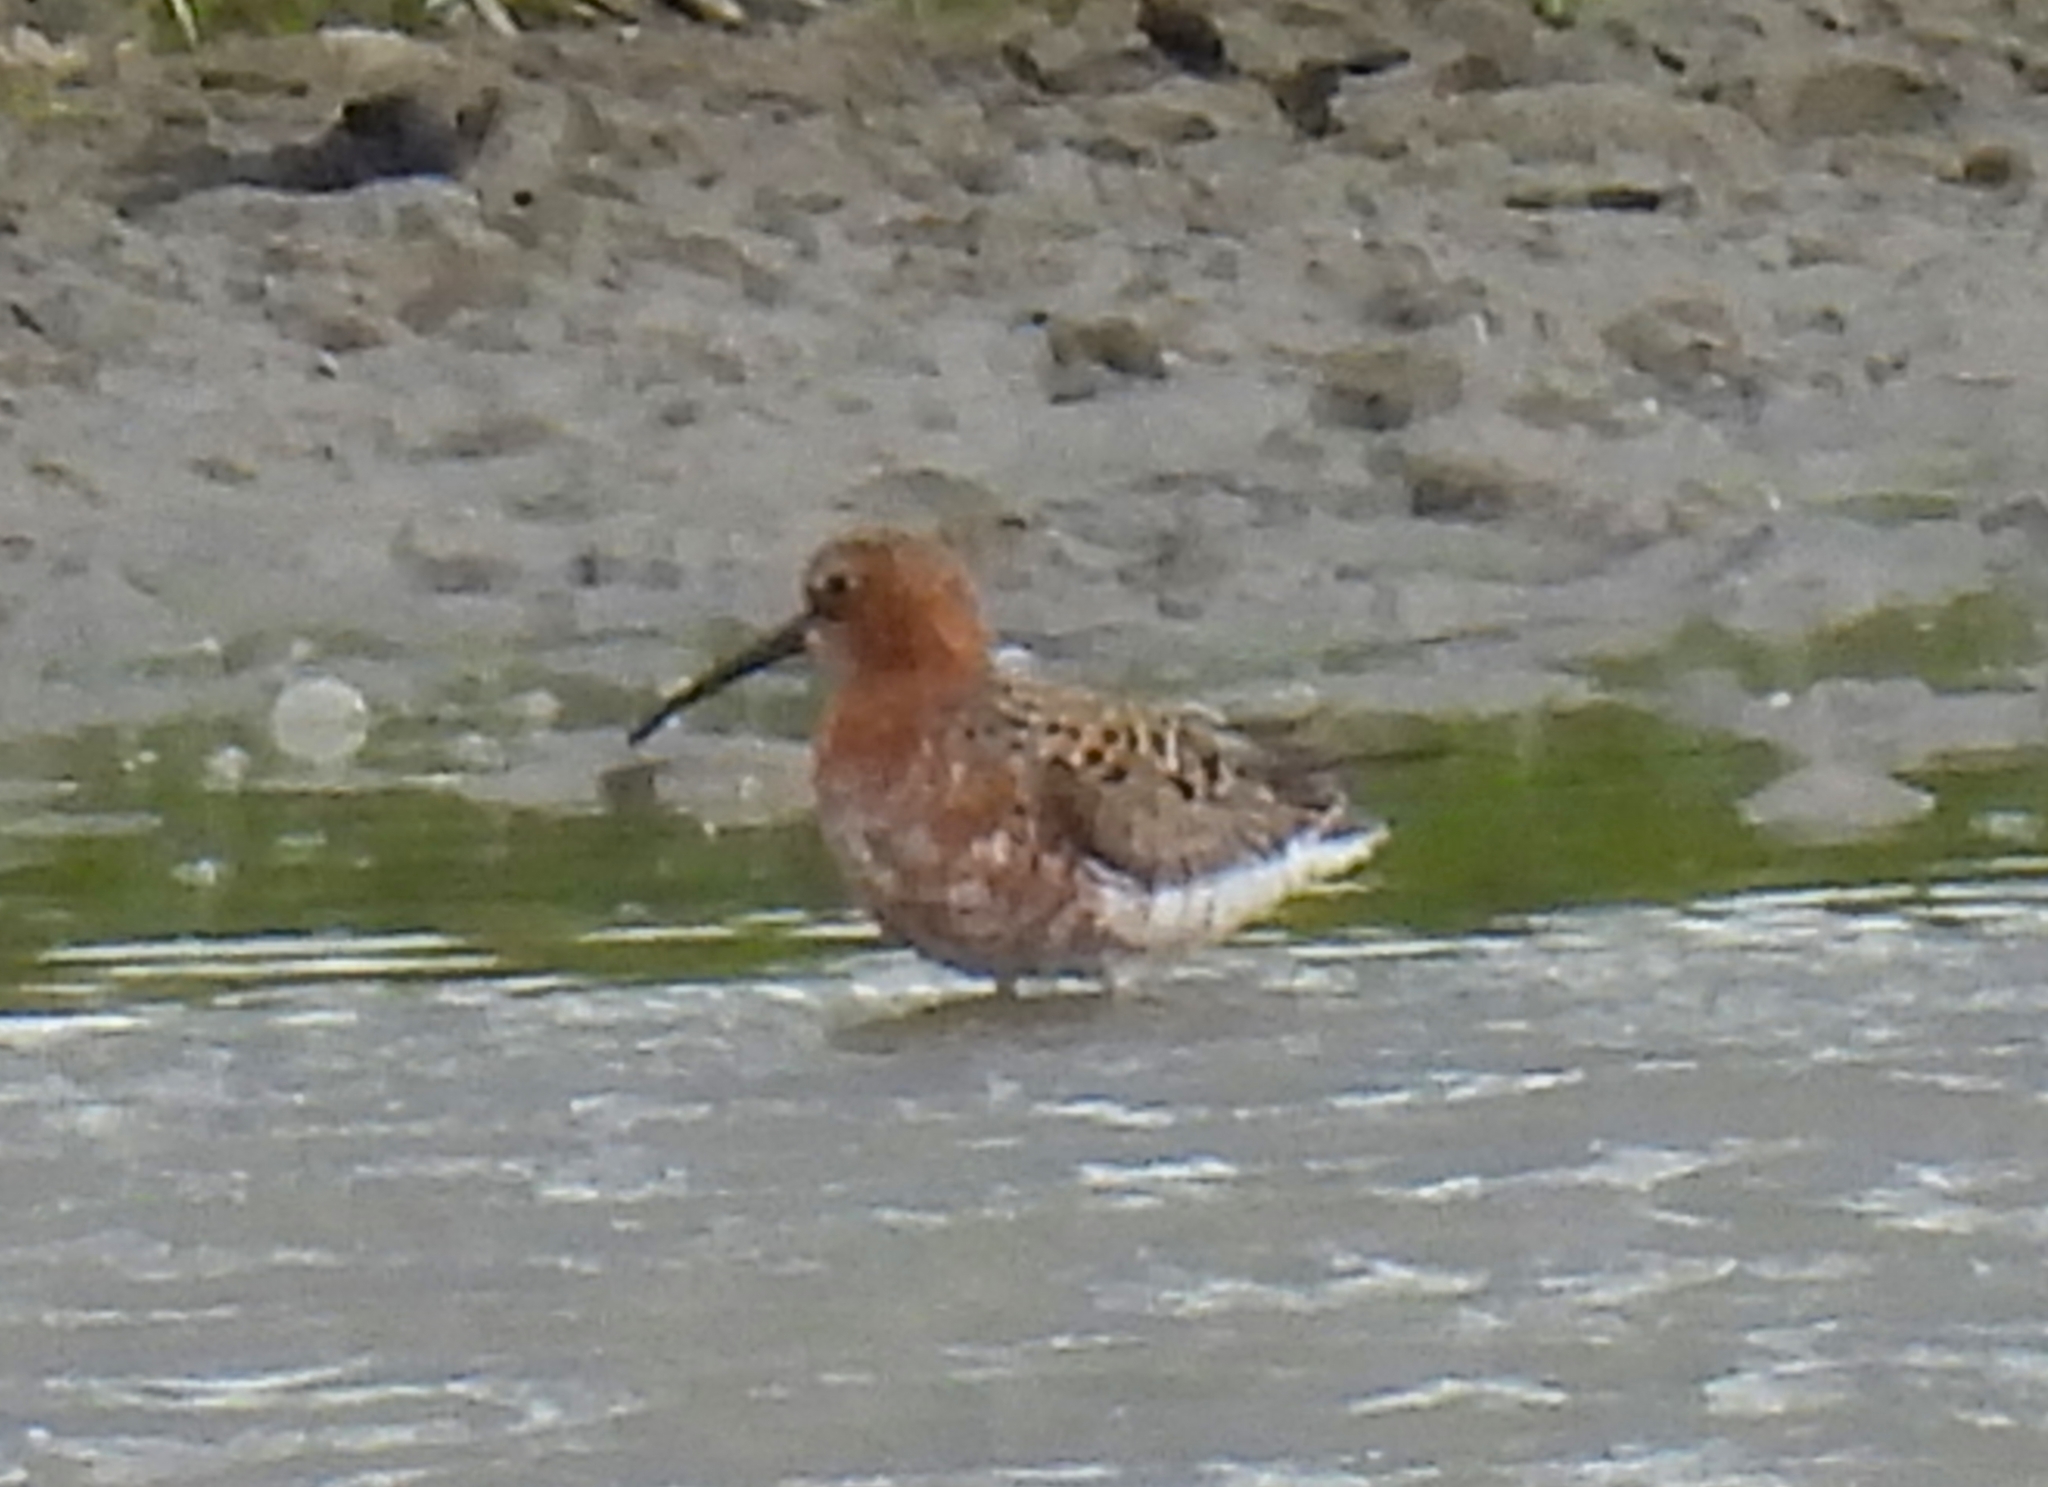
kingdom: Animalia
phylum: Chordata
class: Aves
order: Charadriiformes
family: Scolopacidae
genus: Calidris
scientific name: Calidris ferruginea
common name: Curlew sandpiper
